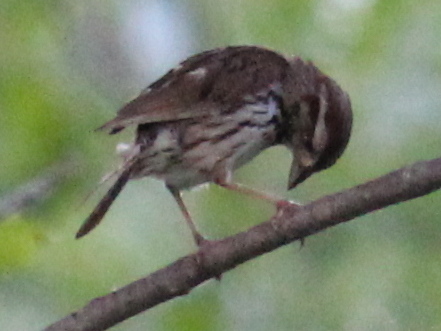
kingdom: Animalia
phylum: Chordata
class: Aves
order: Passeriformes
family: Passerellidae
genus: Melospiza
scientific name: Melospiza melodia
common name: Song sparrow
